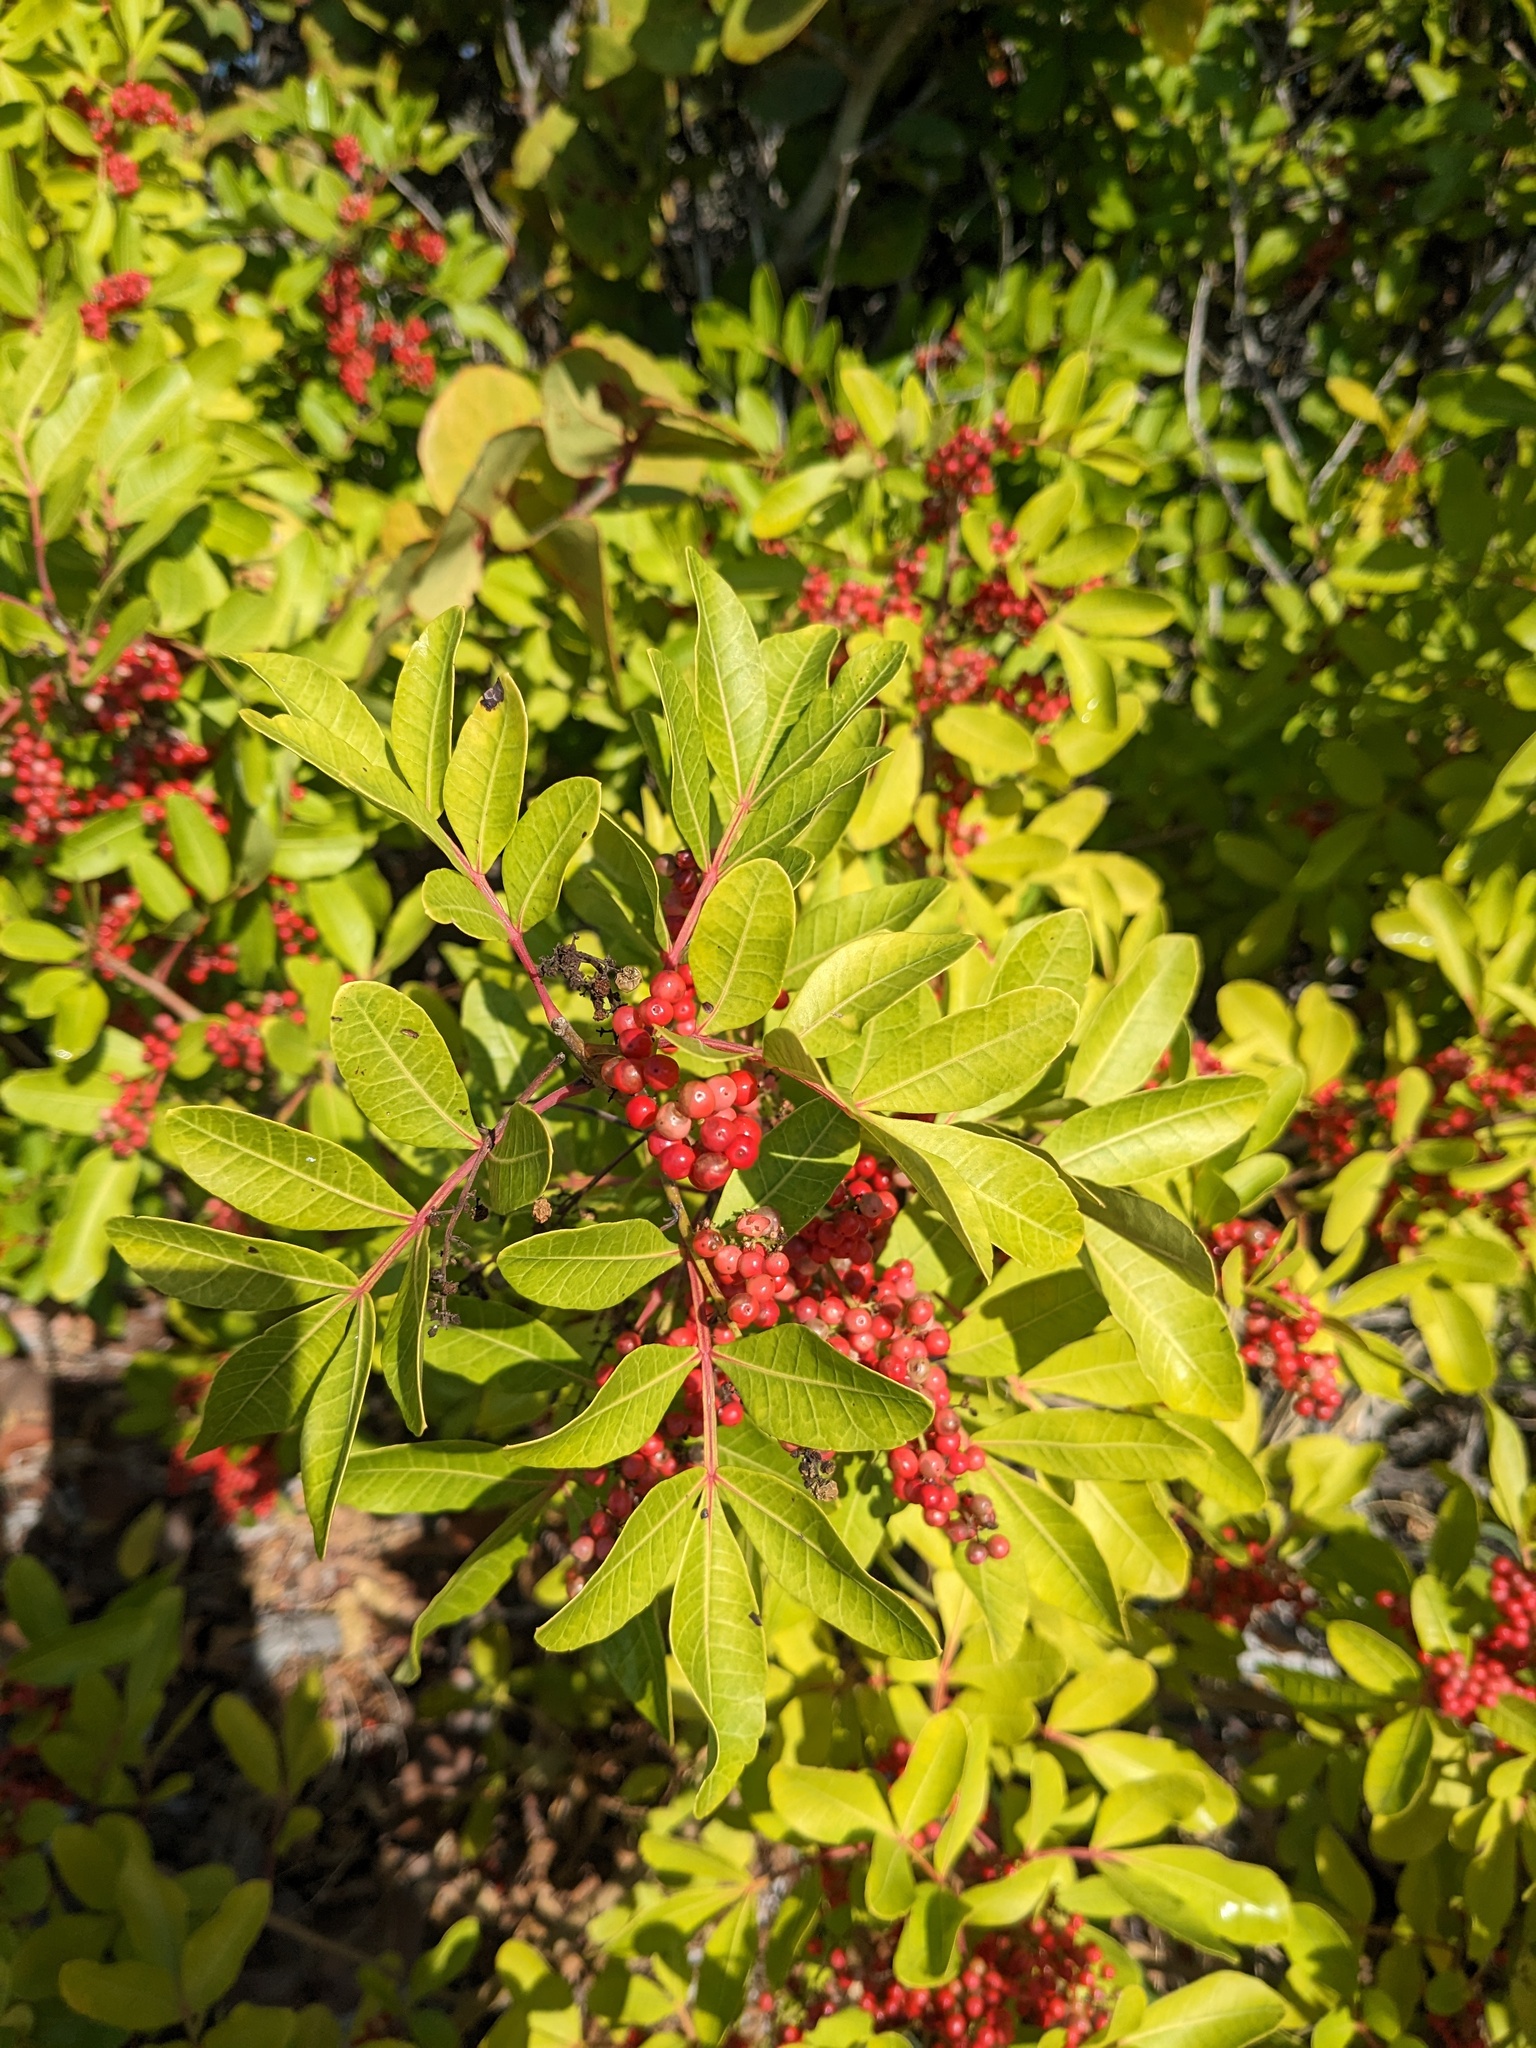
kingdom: Plantae
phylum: Tracheophyta
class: Magnoliopsida
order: Sapindales
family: Anacardiaceae
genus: Schinus
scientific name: Schinus terebinthifolia
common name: Brazilian peppertree
